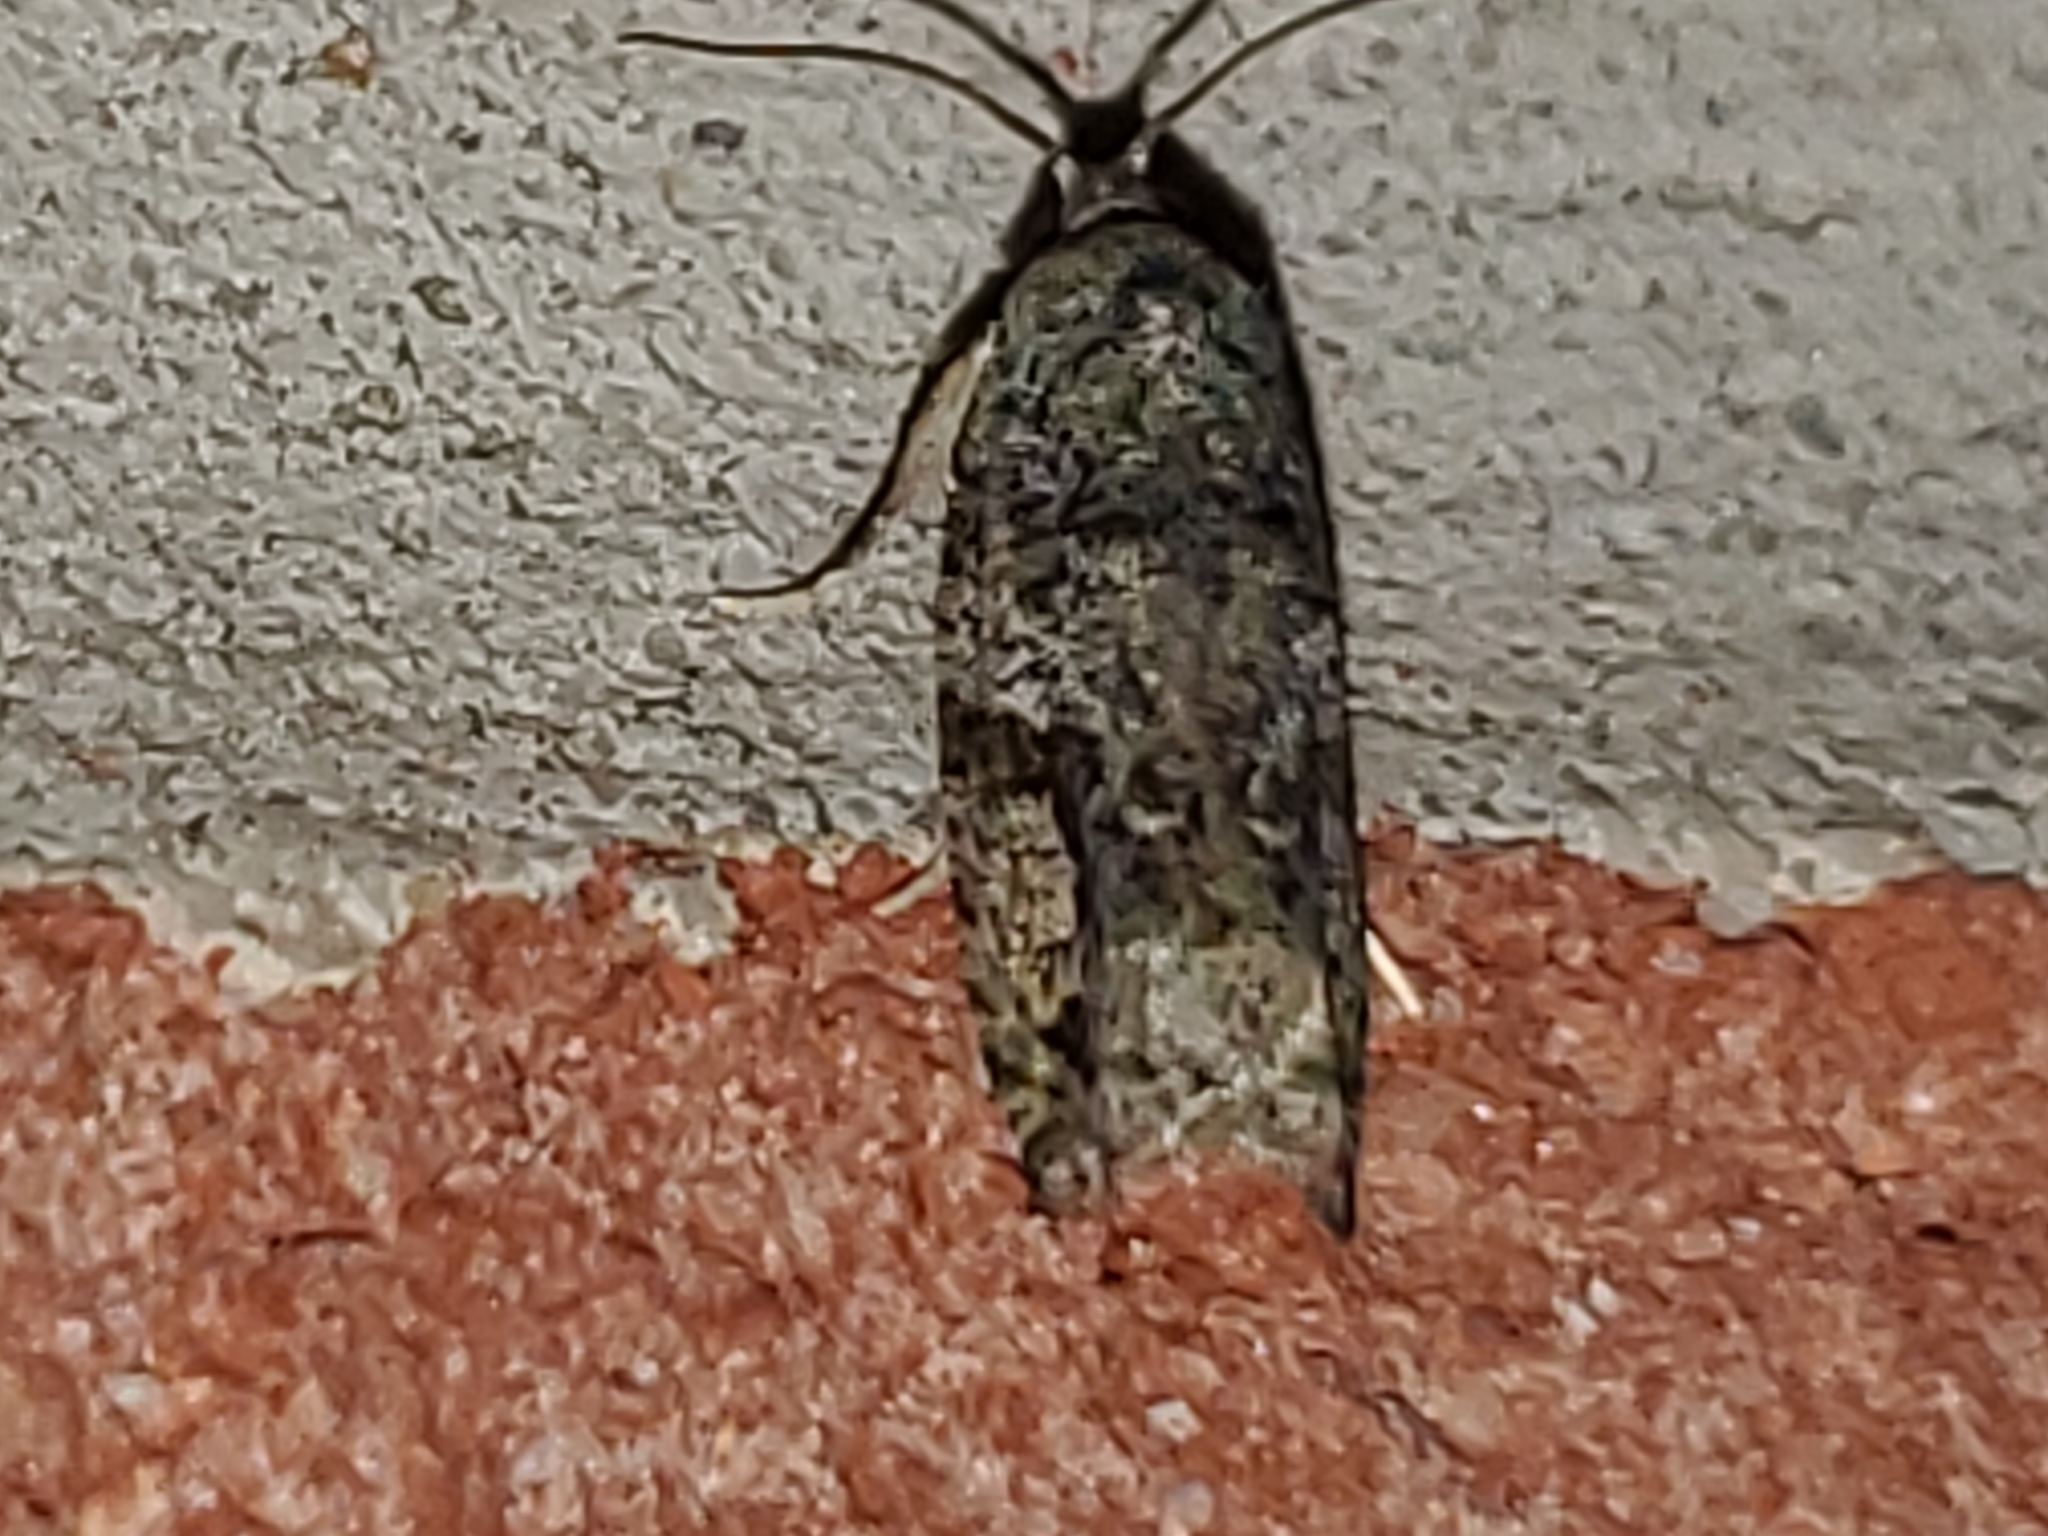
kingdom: Animalia
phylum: Arthropoda
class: Insecta
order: Lepidoptera
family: Tortricidae
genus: Proteoteras
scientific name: Proteoteras aesculana
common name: Maple twig borer moth
